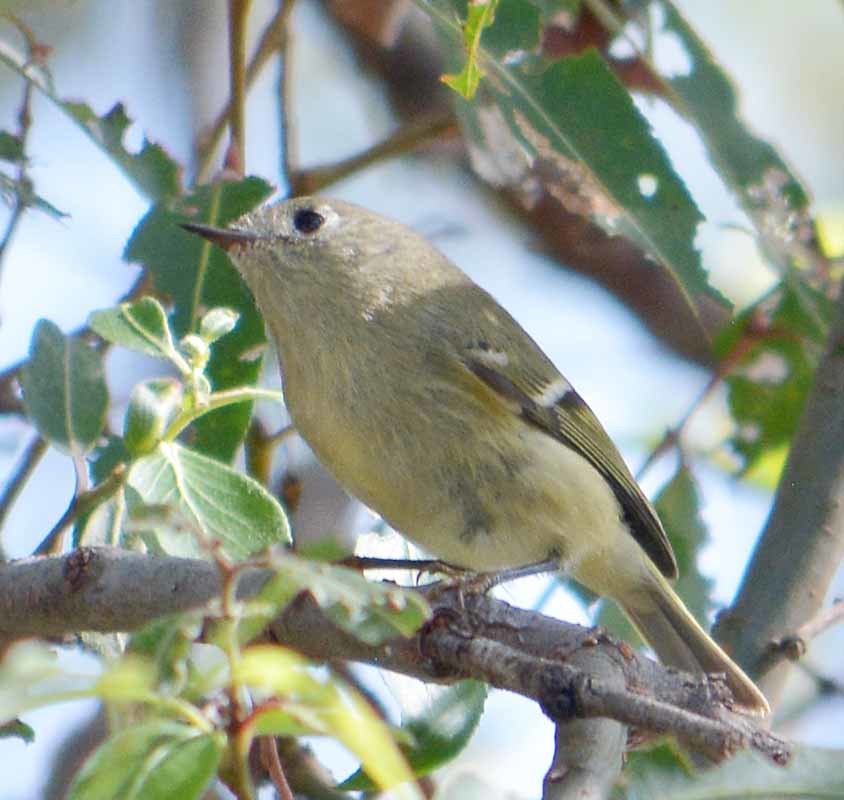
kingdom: Animalia
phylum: Chordata
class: Aves
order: Passeriformes
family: Regulidae
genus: Regulus
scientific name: Regulus calendula
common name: Ruby-crowned kinglet
